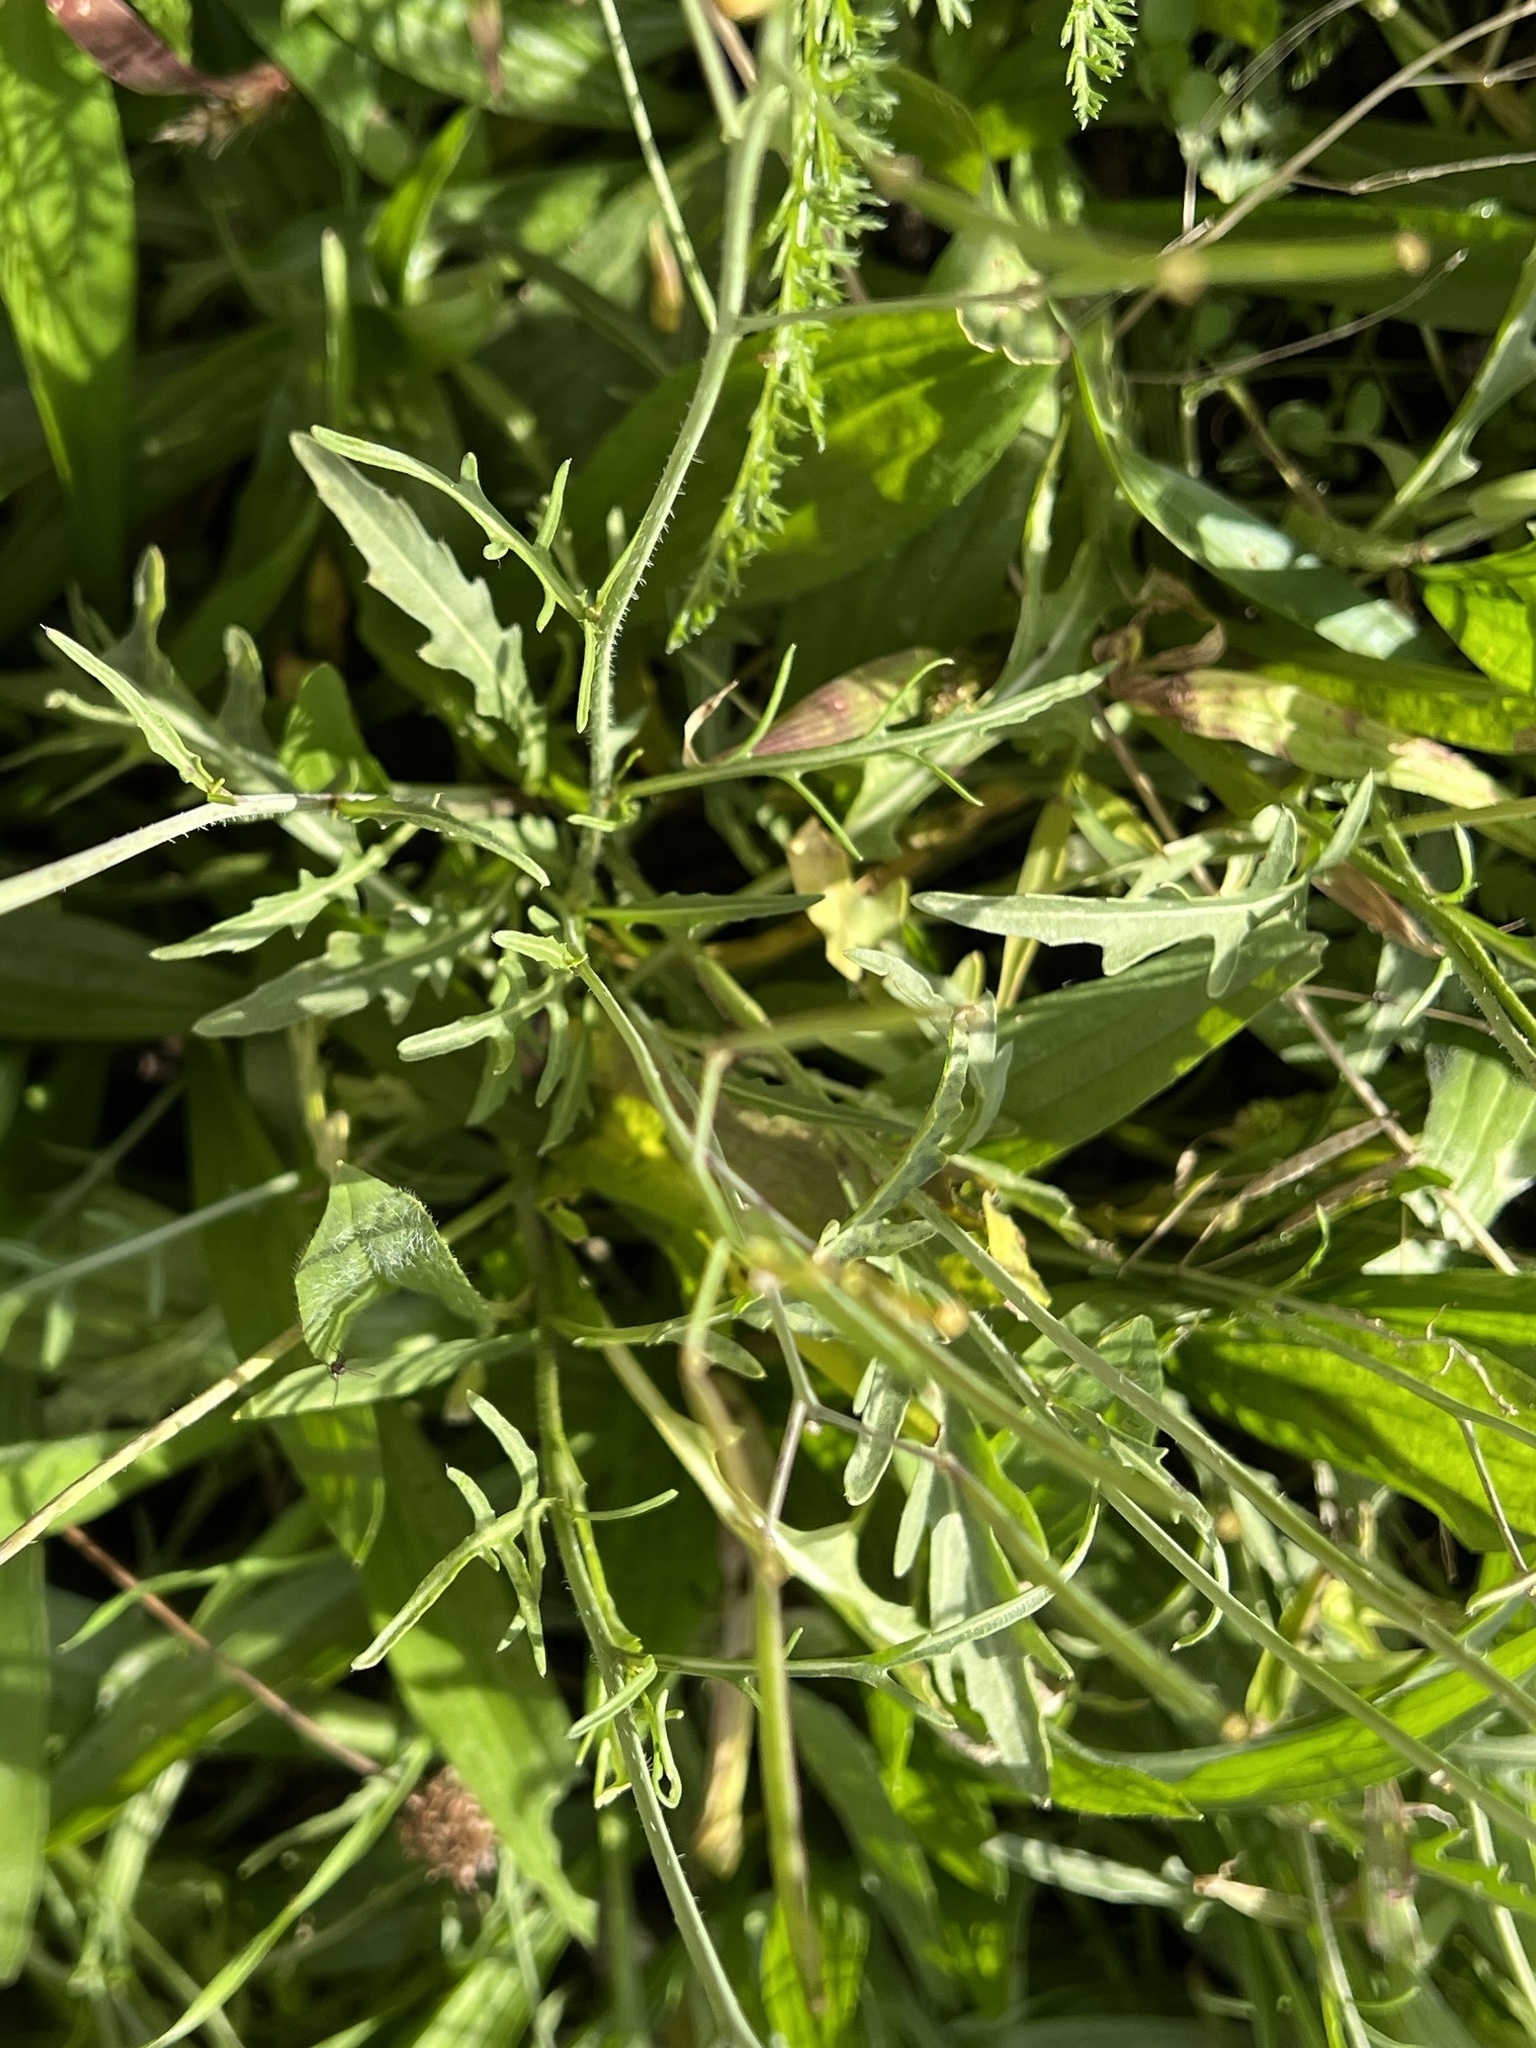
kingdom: Plantae
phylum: Tracheophyta
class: Magnoliopsida
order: Brassicales
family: Brassicaceae
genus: Diplotaxis
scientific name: Diplotaxis tenuifolia
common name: Perennial wall-rocket
